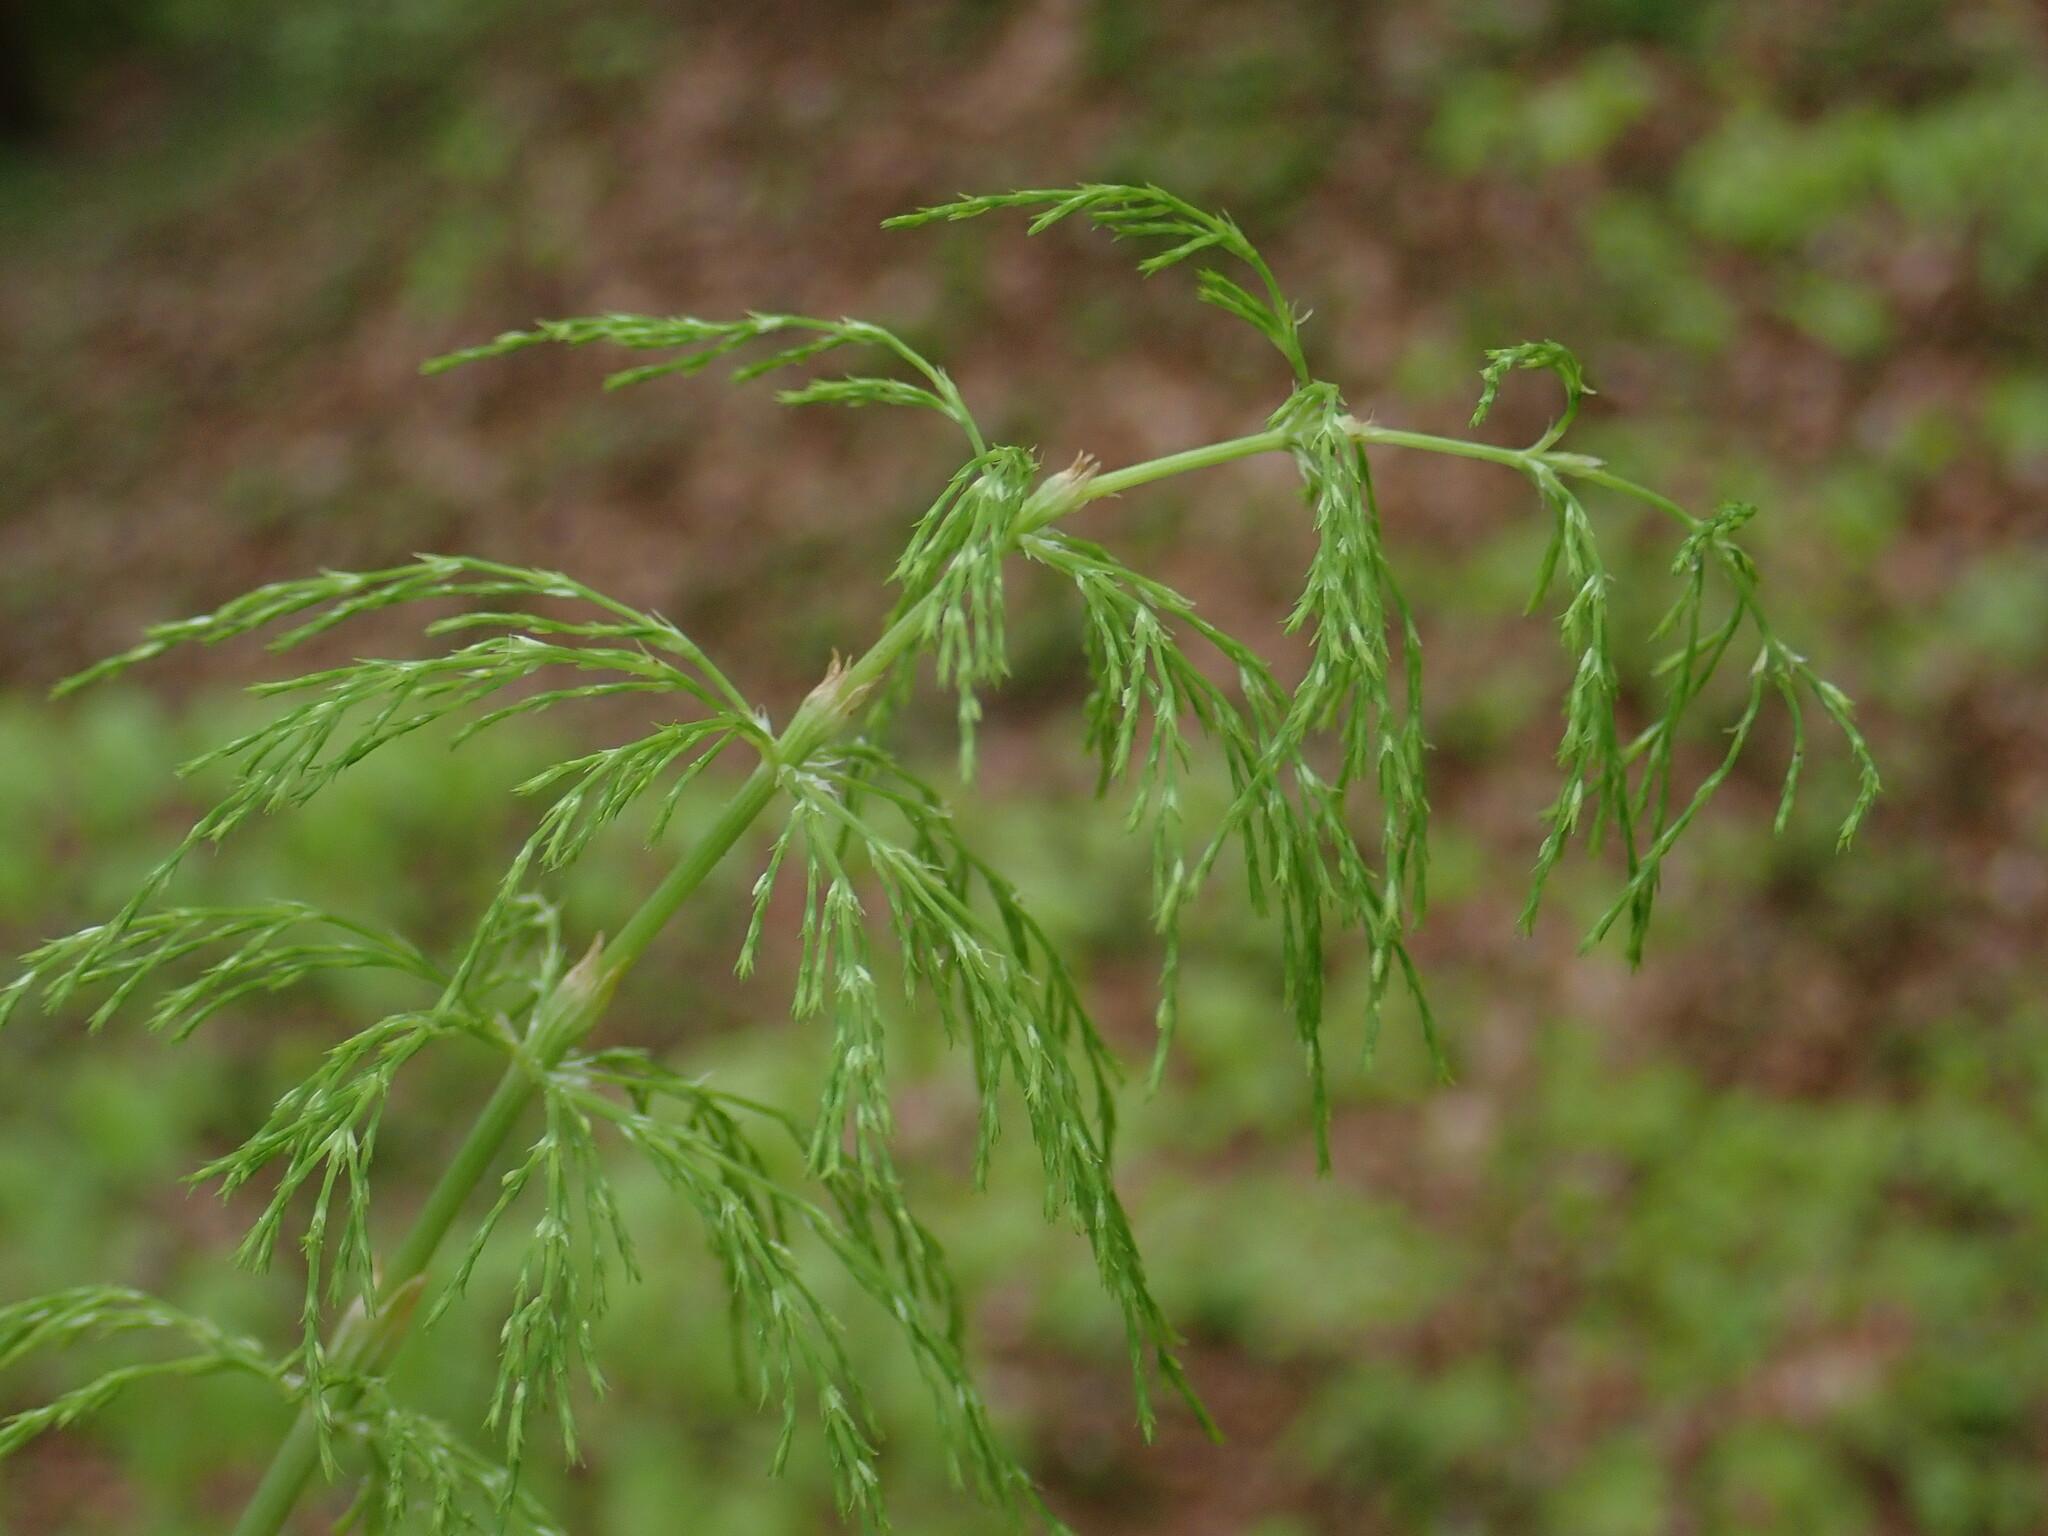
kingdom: Plantae
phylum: Tracheophyta
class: Polypodiopsida
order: Equisetales
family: Equisetaceae
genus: Equisetum
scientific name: Equisetum sylvaticum
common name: Wood horsetail
